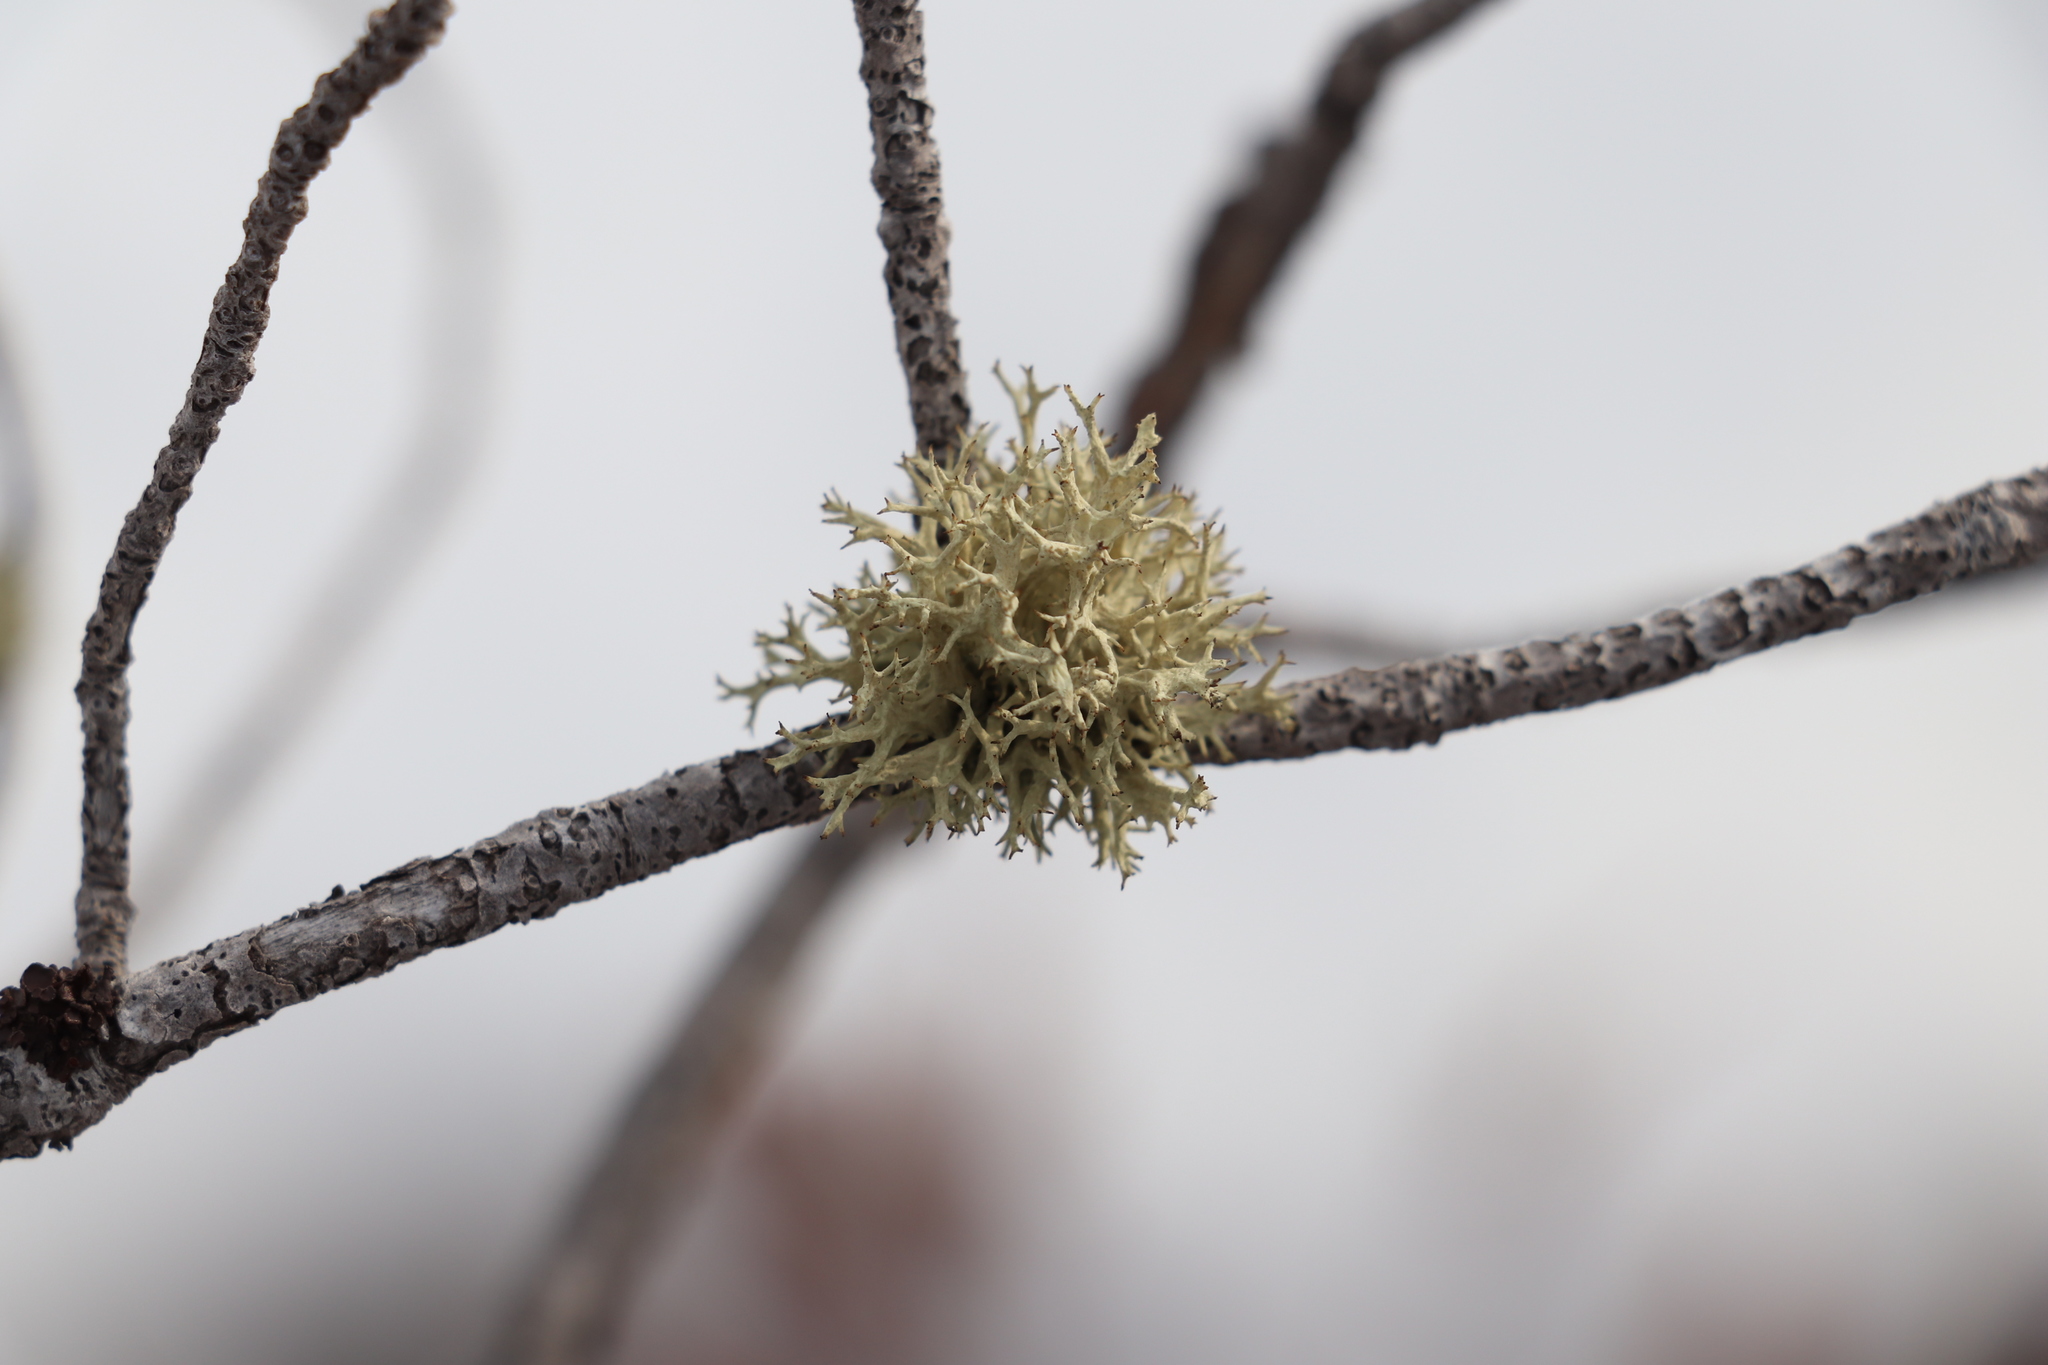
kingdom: Fungi
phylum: Ascomycota
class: Lecanoromycetes
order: Lecanorales
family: Parmeliaceae
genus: Evernia
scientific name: Evernia mesomorpha
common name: Boreal oak moss lichen
